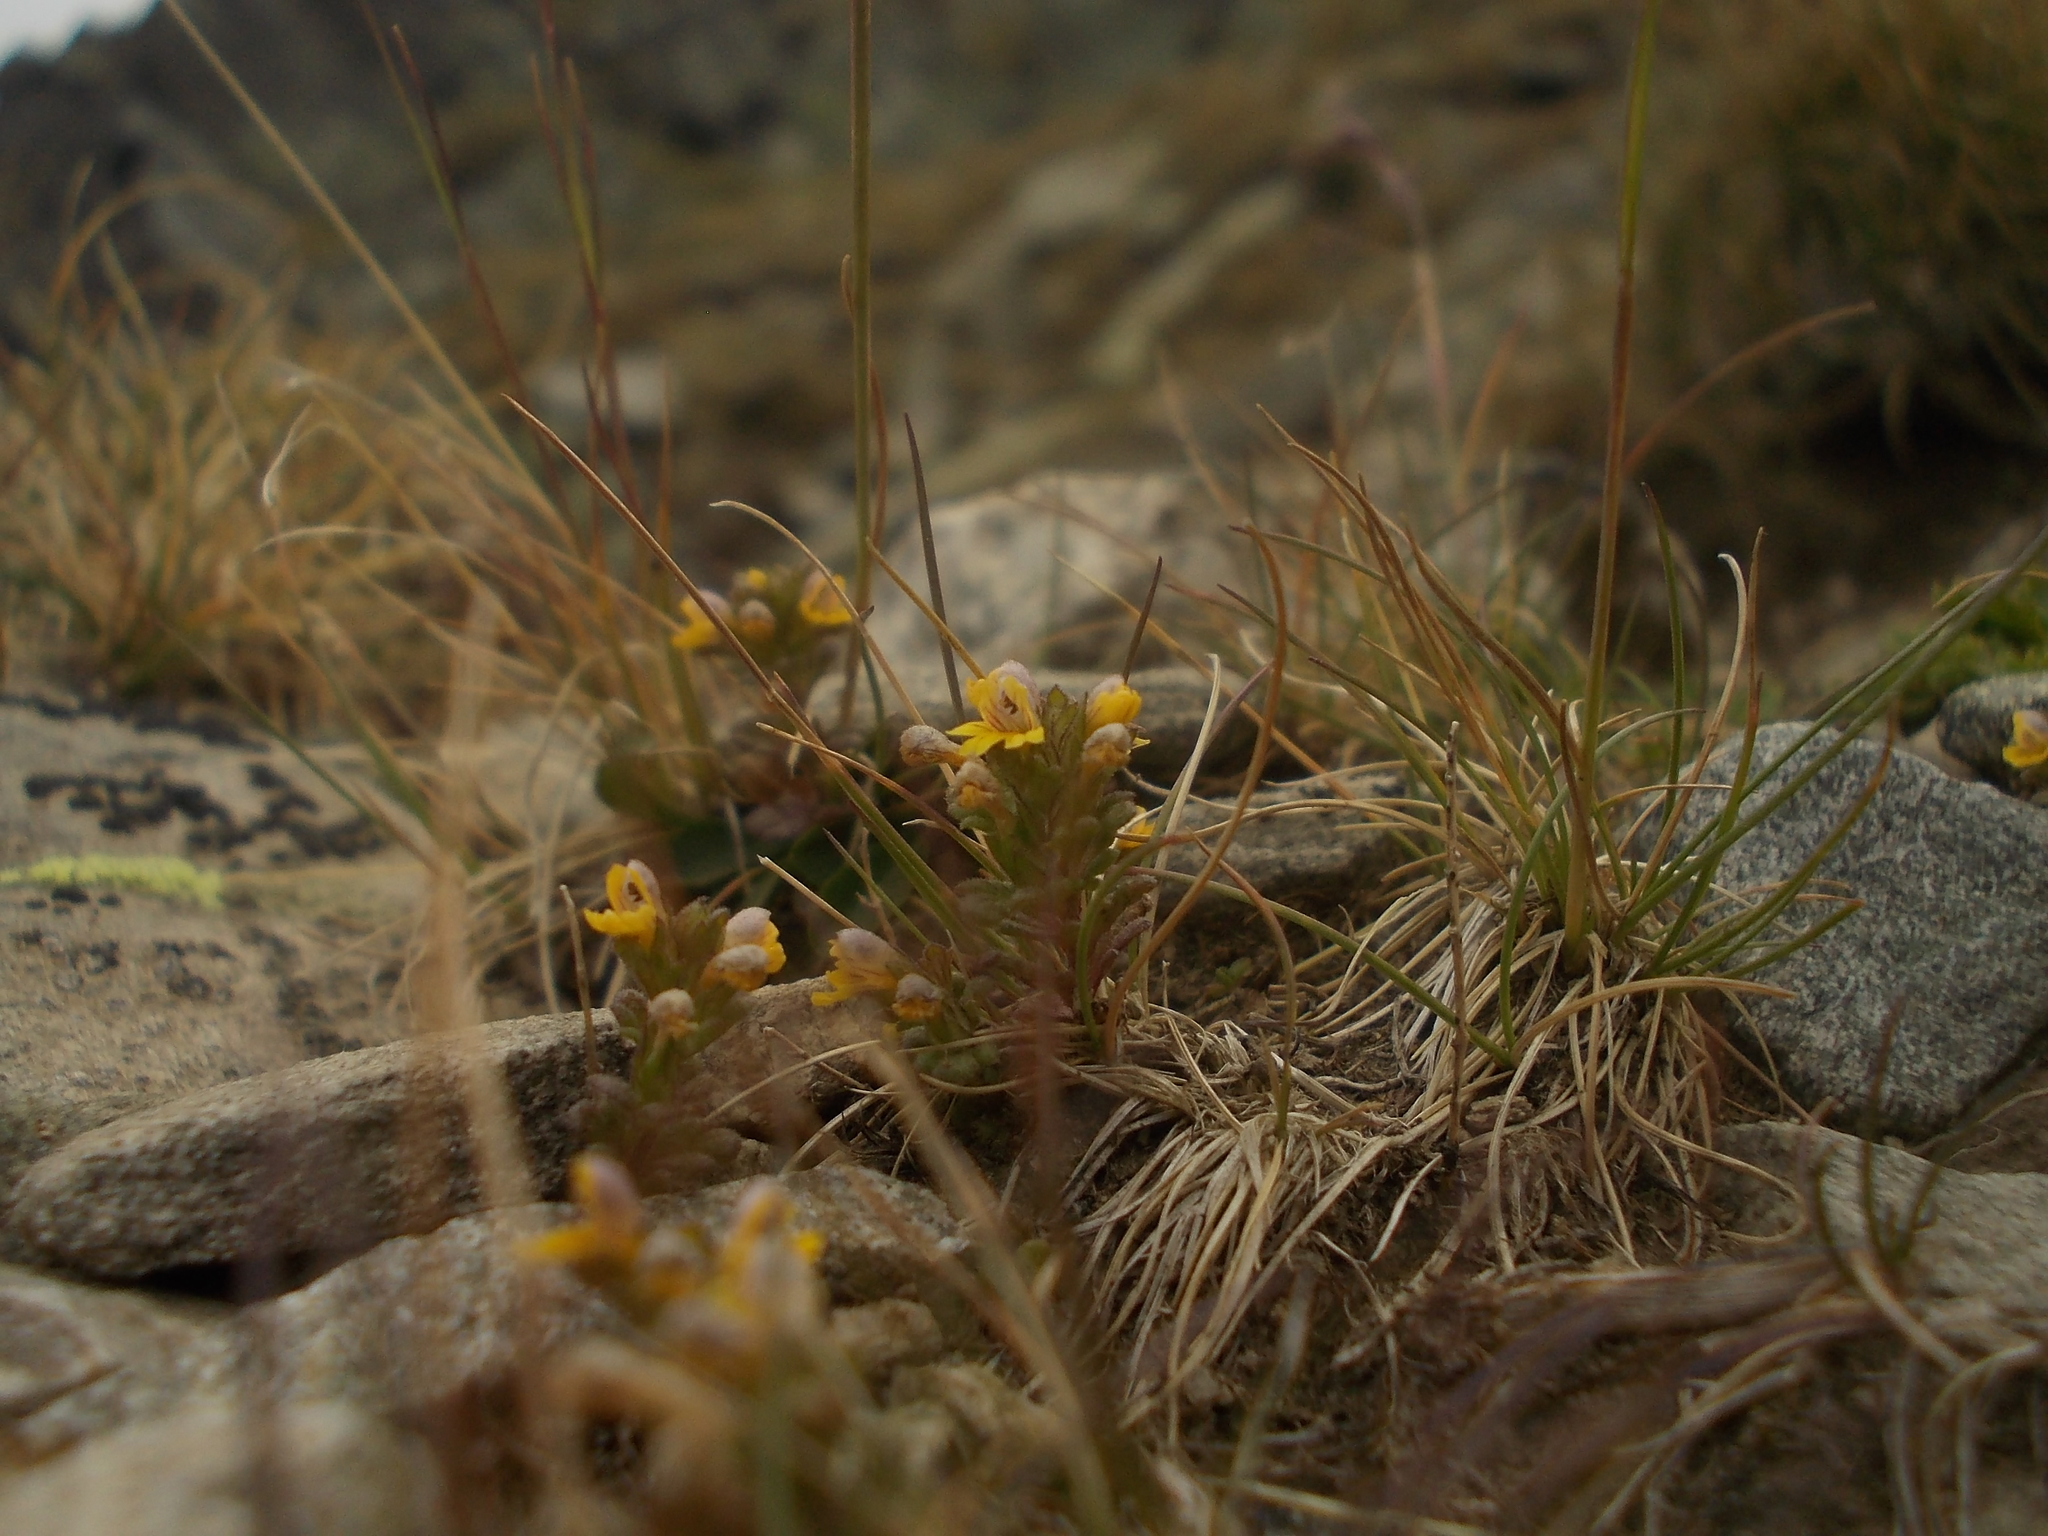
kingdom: Plantae
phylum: Tracheophyta
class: Magnoliopsida
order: Lamiales
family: Orobanchaceae
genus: Euphrasia
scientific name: Euphrasia minima
